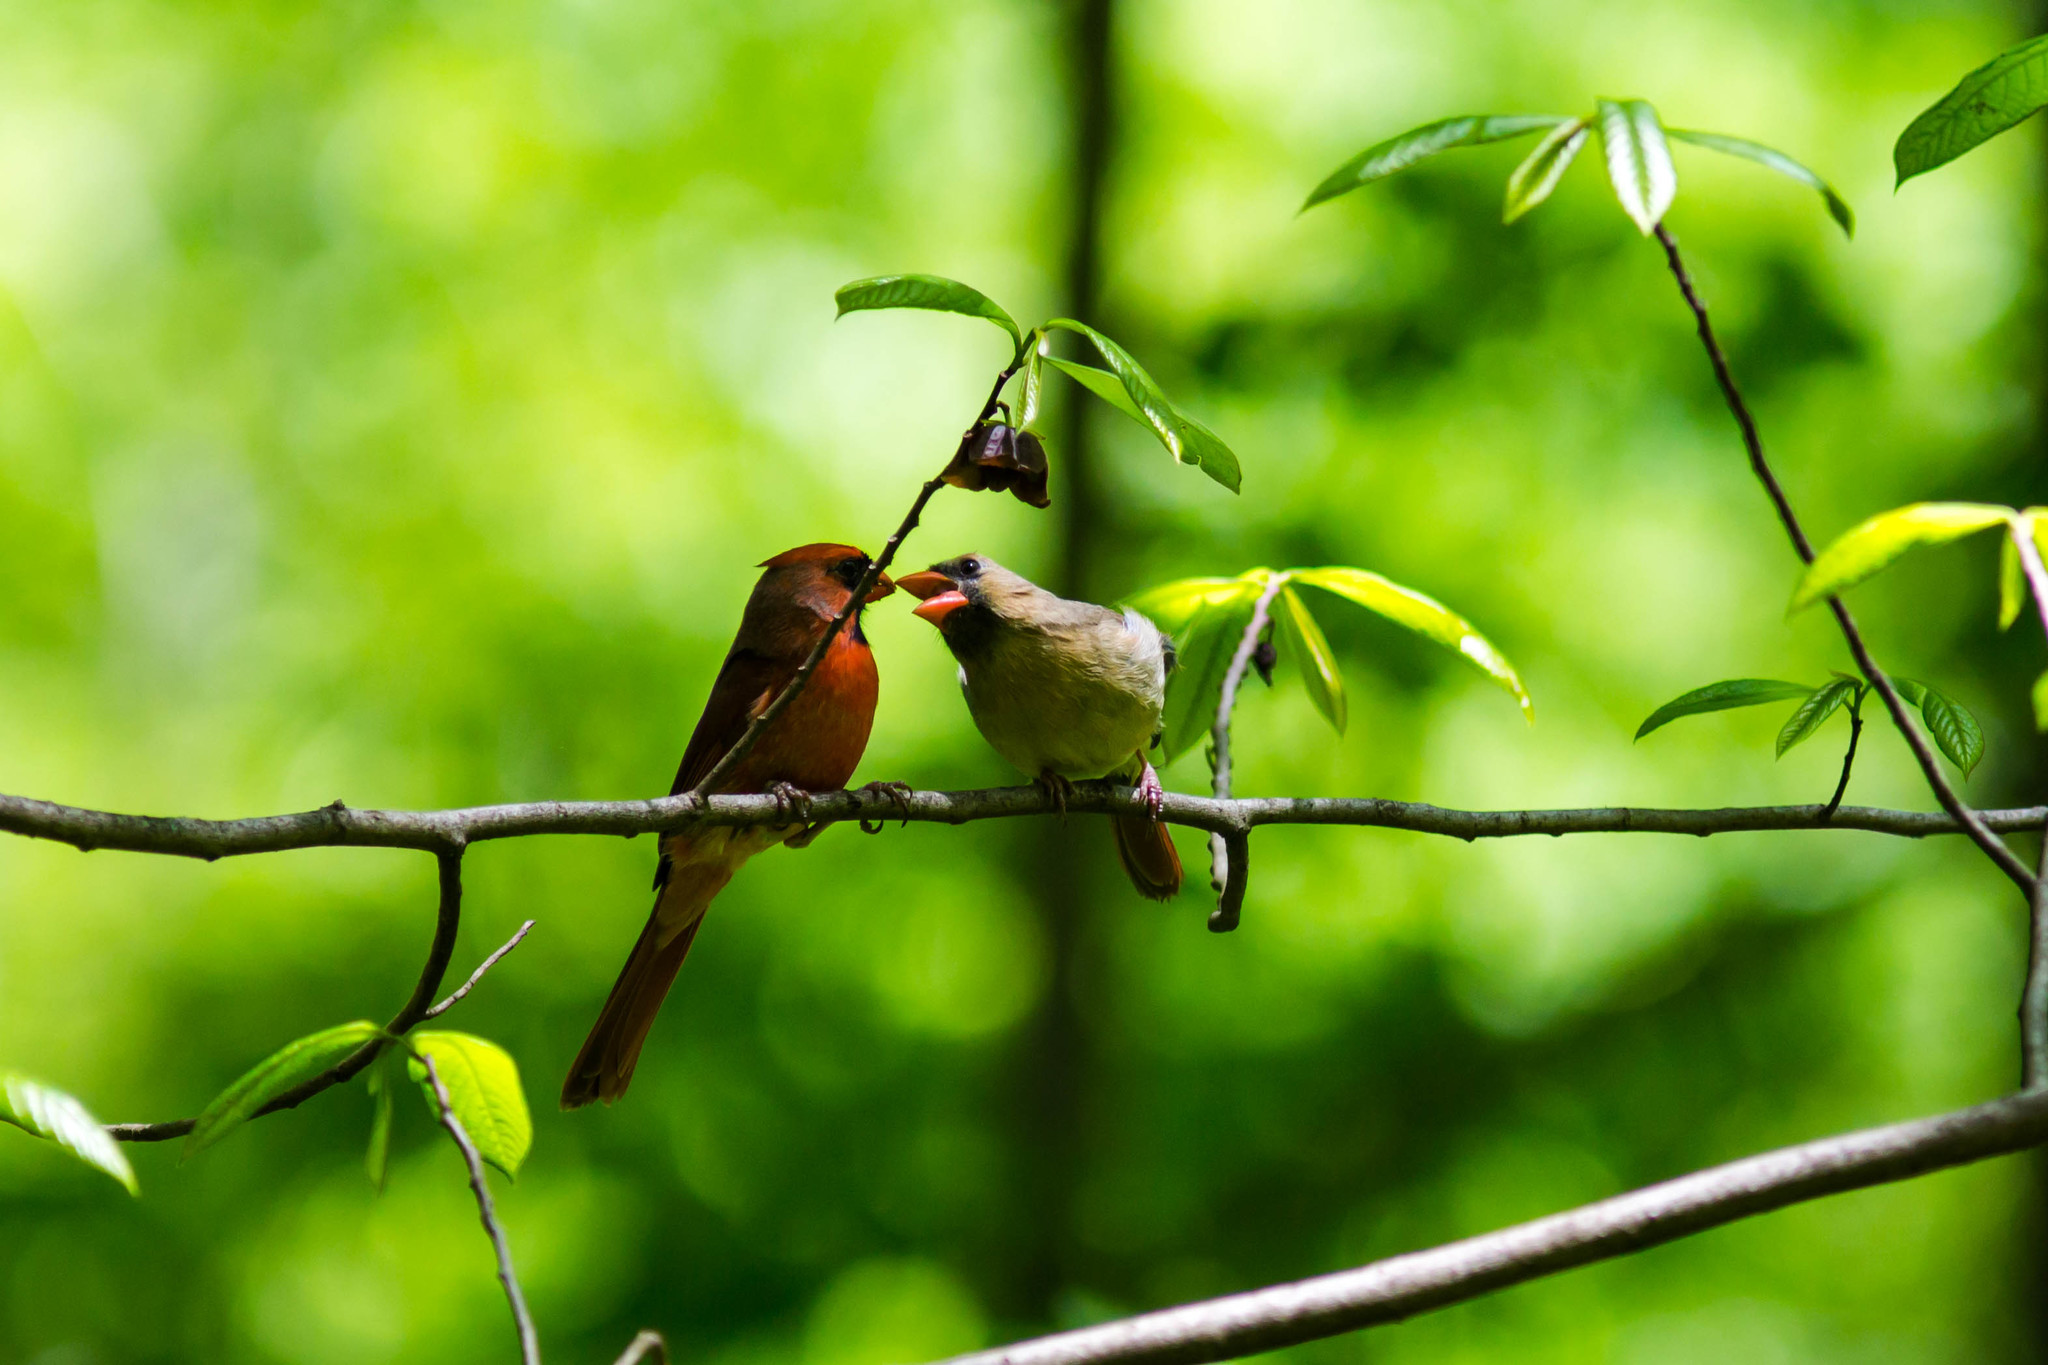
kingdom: Animalia
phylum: Chordata
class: Aves
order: Passeriformes
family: Cardinalidae
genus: Cardinalis
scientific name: Cardinalis cardinalis
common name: Northern cardinal
